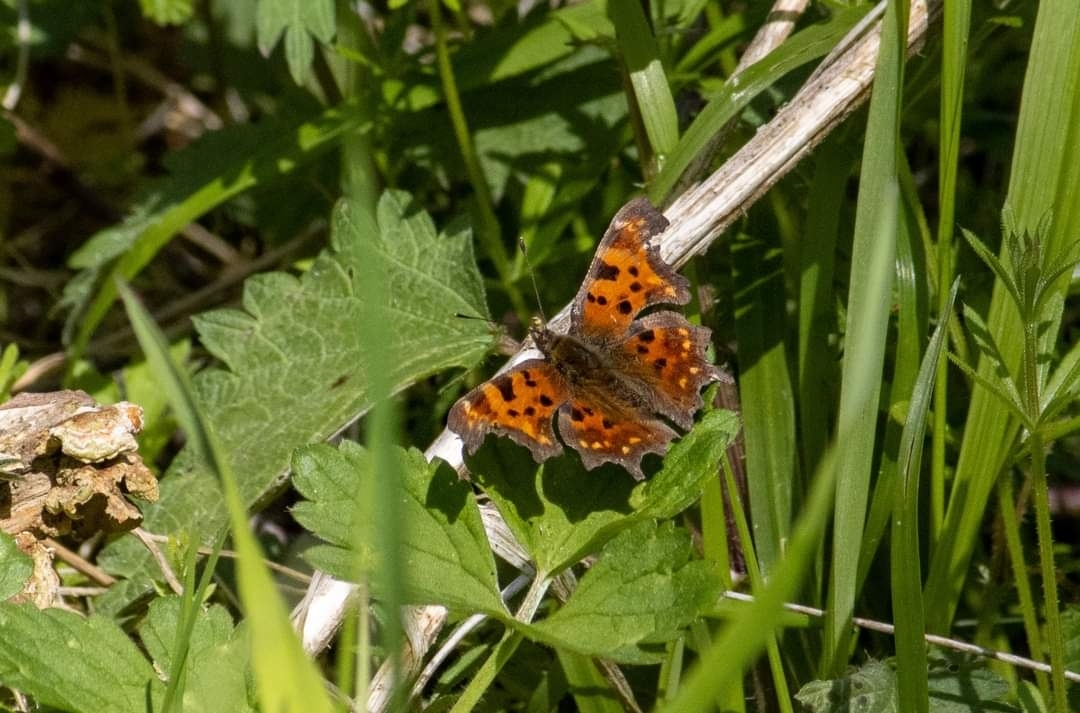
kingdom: Animalia
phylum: Arthropoda
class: Insecta
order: Lepidoptera
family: Nymphalidae
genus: Polygonia
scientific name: Polygonia c-album
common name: Comma
